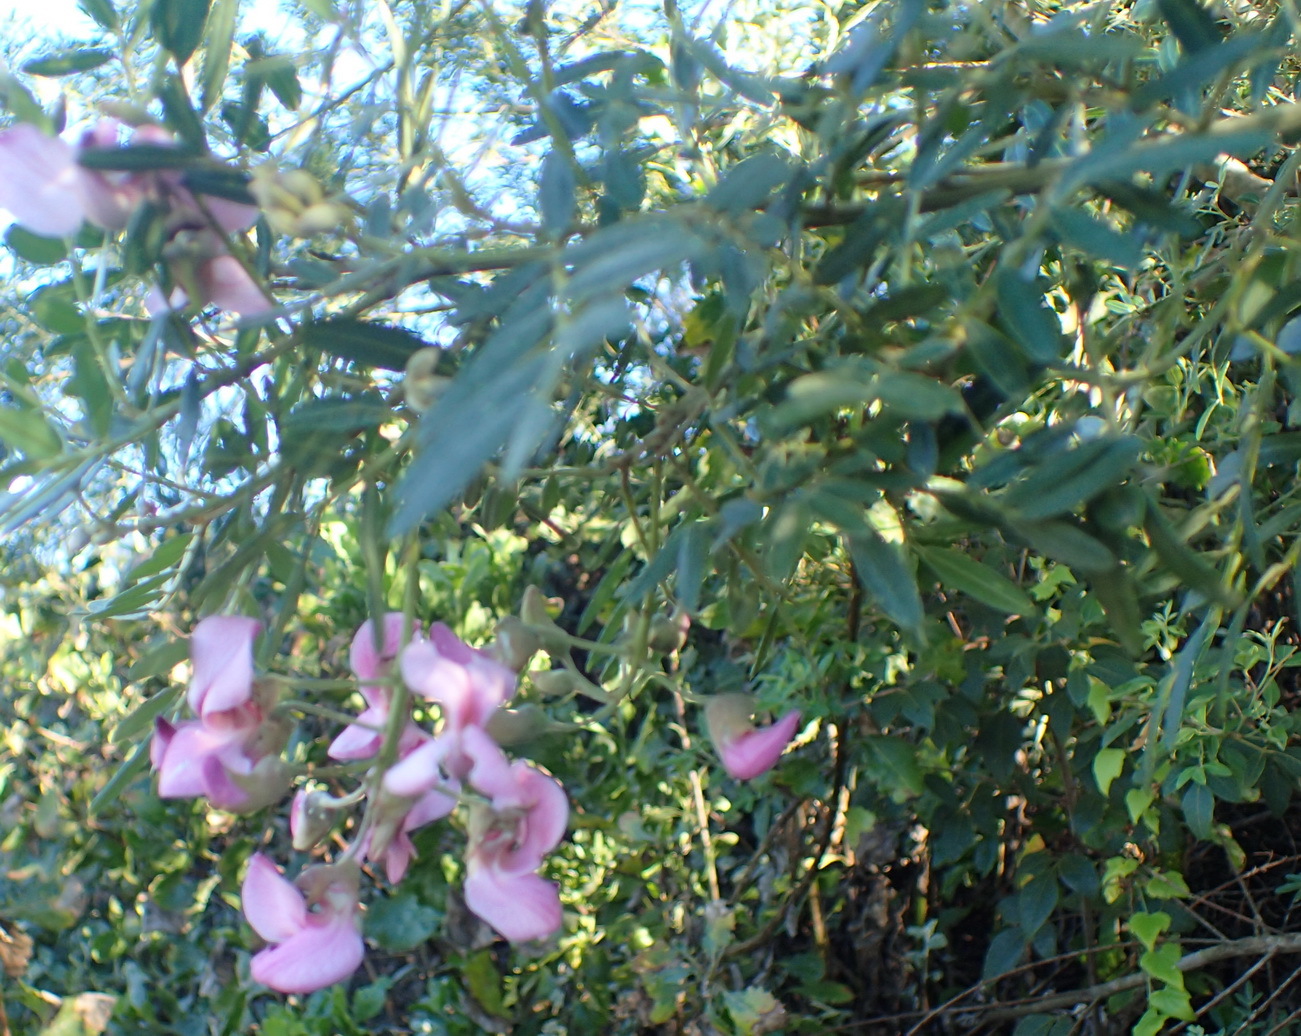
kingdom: Plantae
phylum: Tracheophyta
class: Magnoliopsida
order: Fabales
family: Fabaceae
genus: Virgilia
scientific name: Virgilia divaricata
